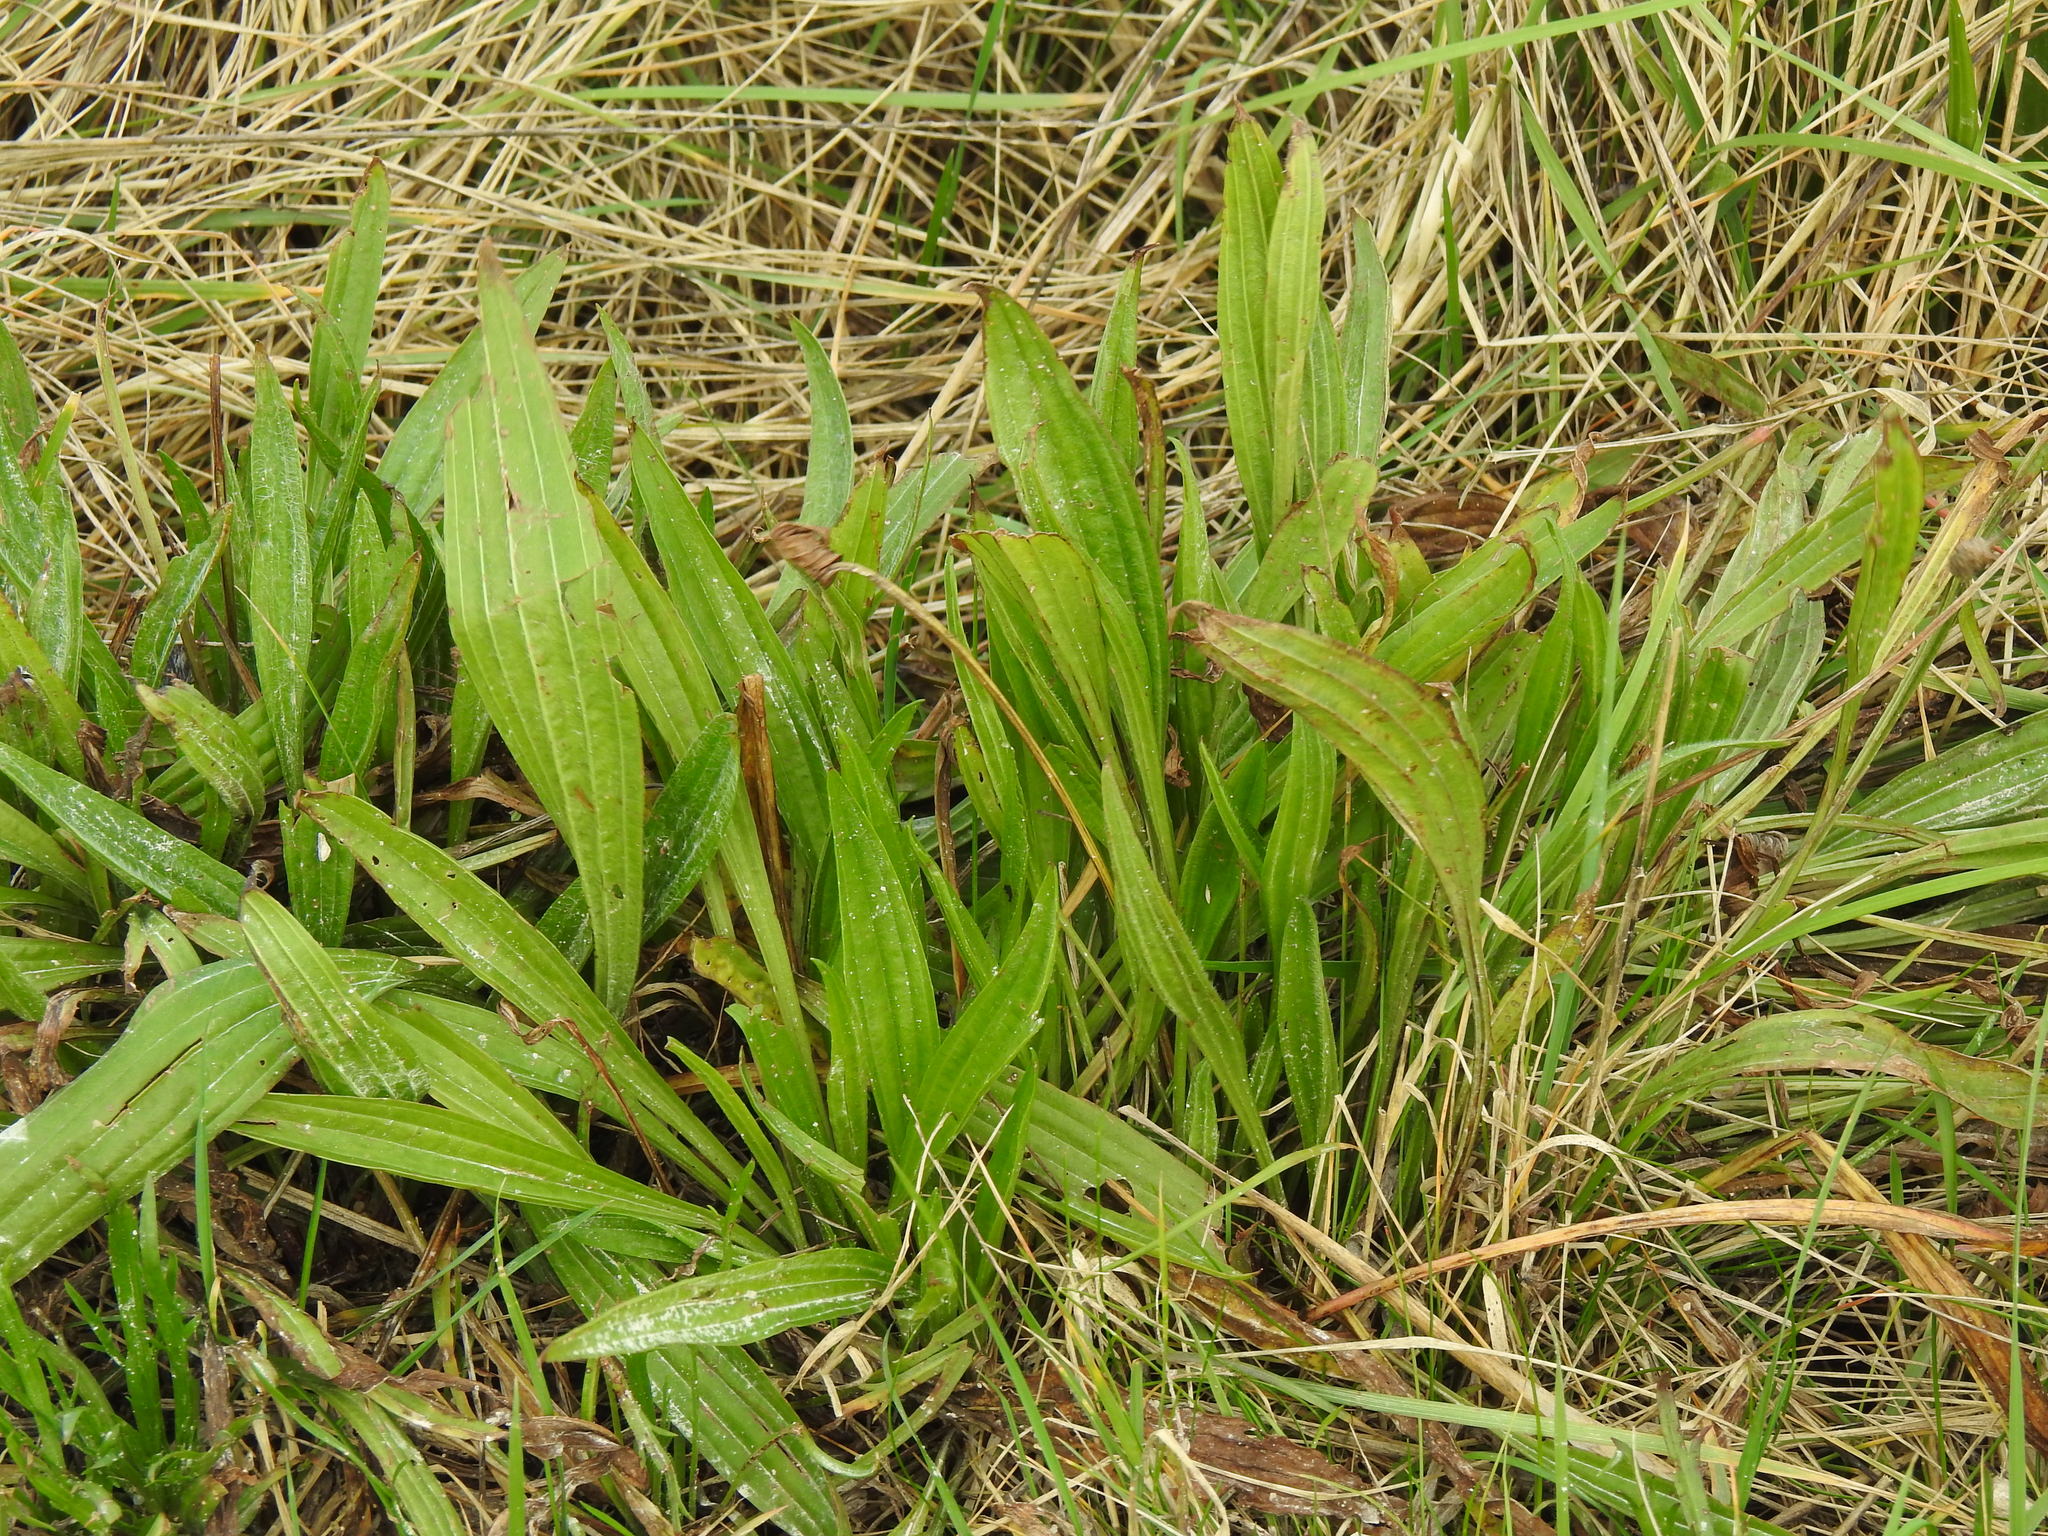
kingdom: Plantae
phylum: Tracheophyta
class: Magnoliopsida
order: Lamiales
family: Plantaginaceae
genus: Plantago
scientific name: Plantago lanceolata
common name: Ribwort plantain
